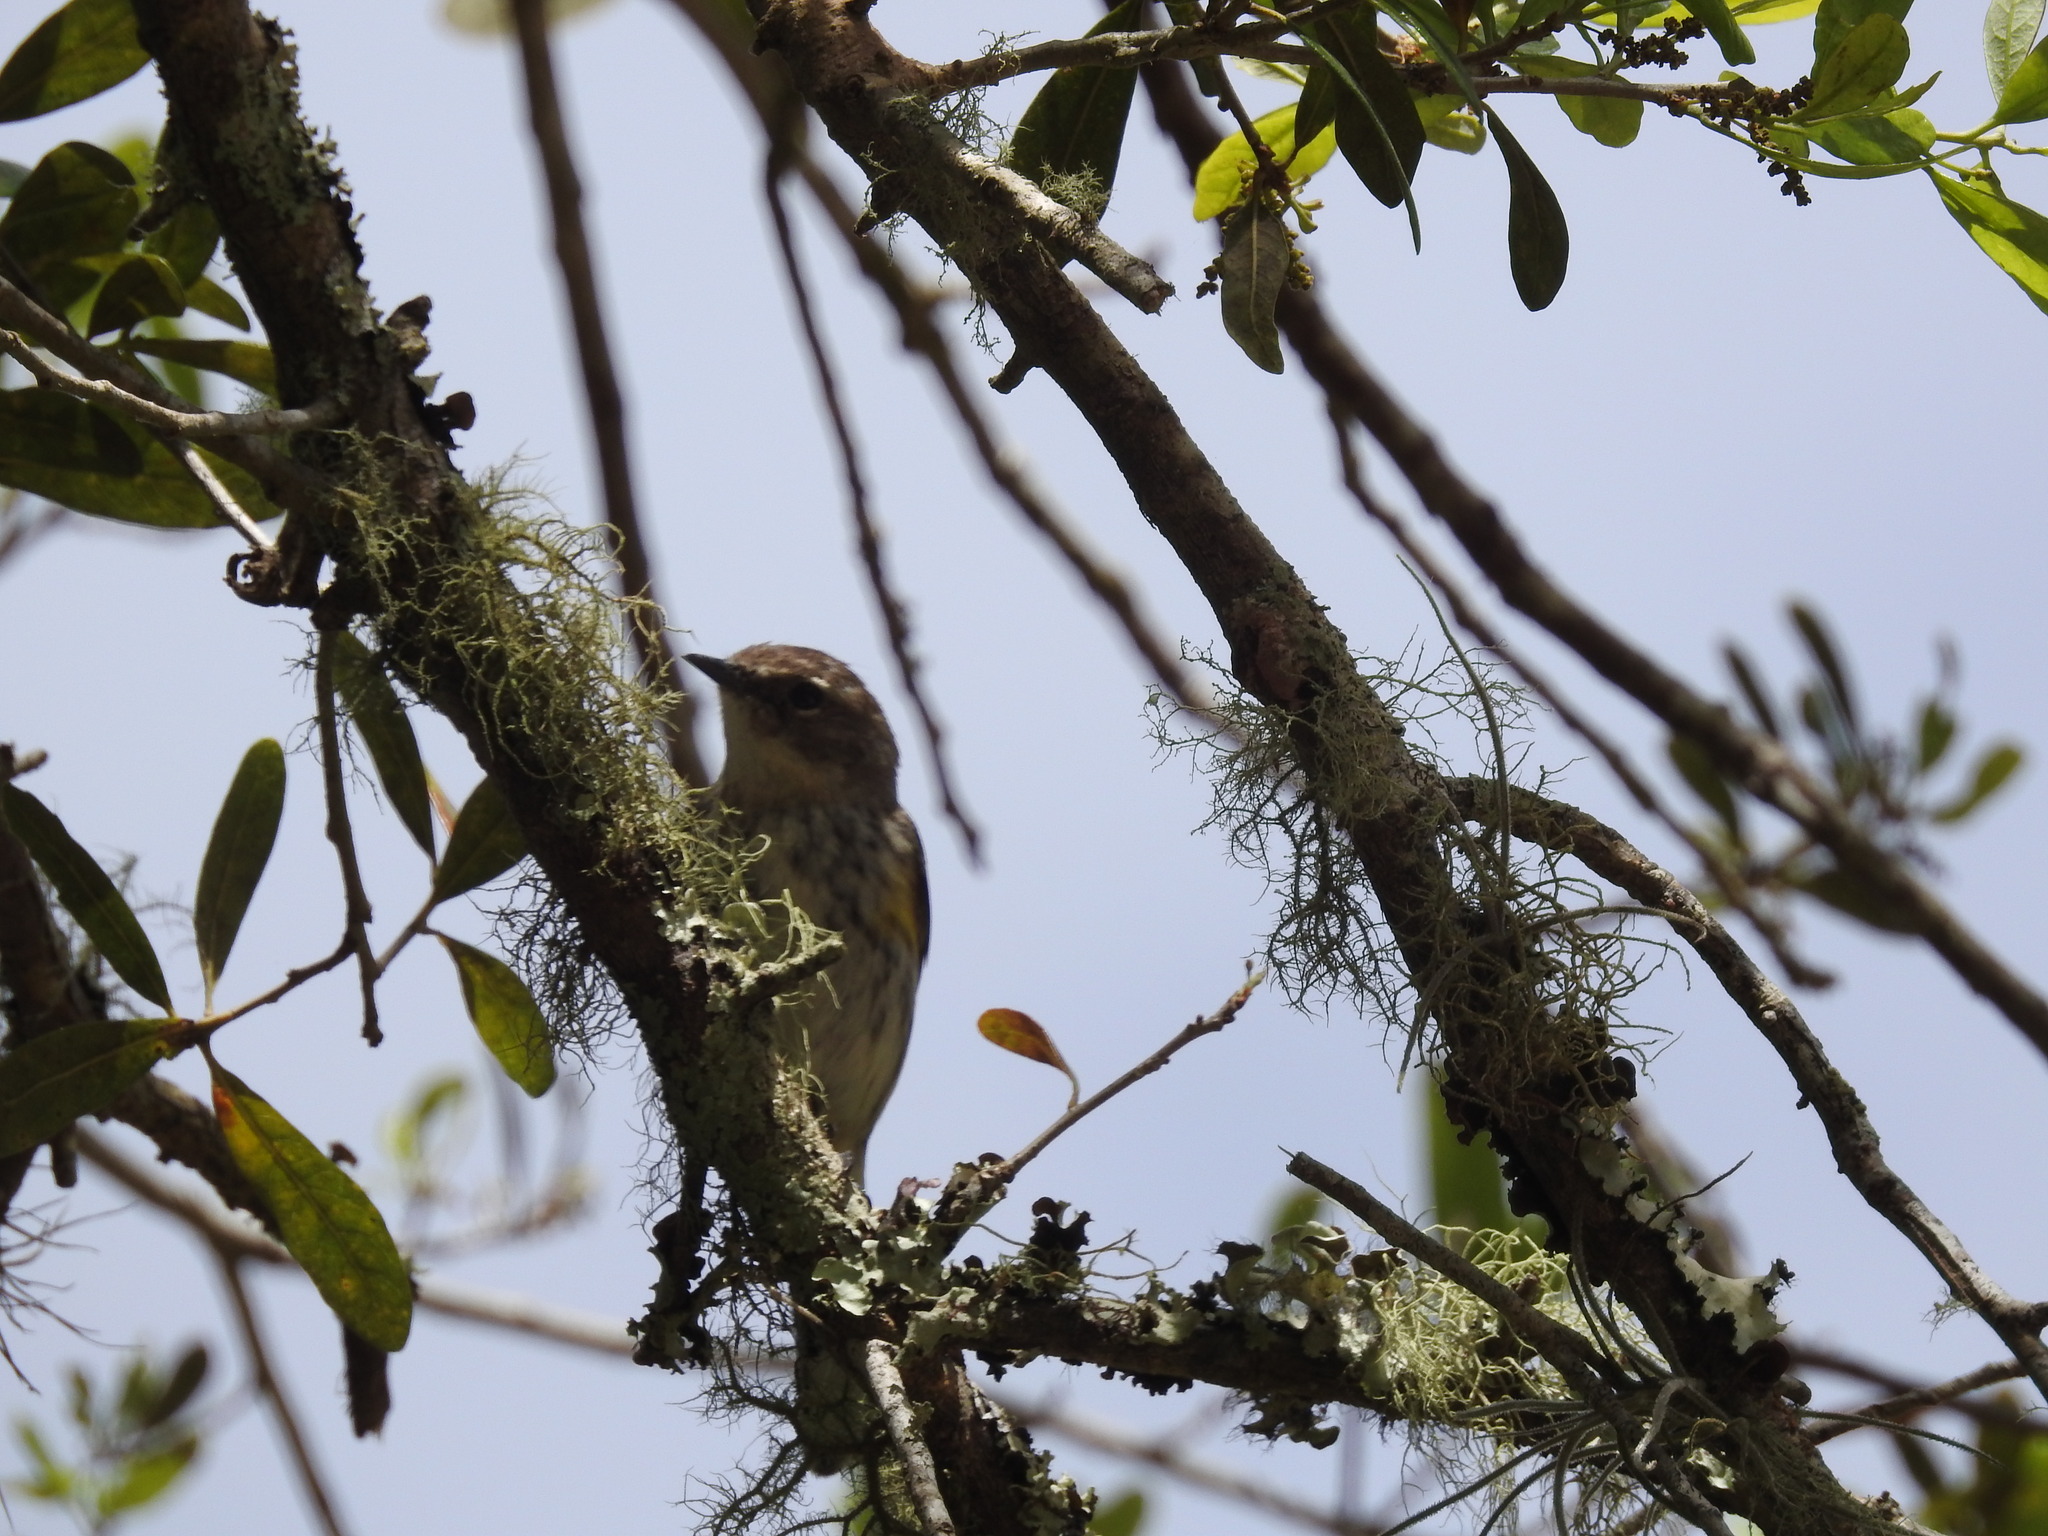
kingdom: Animalia
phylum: Chordata
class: Aves
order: Passeriformes
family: Parulidae
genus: Setophaga
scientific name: Setophaga coronata
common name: Myrtle warbler
